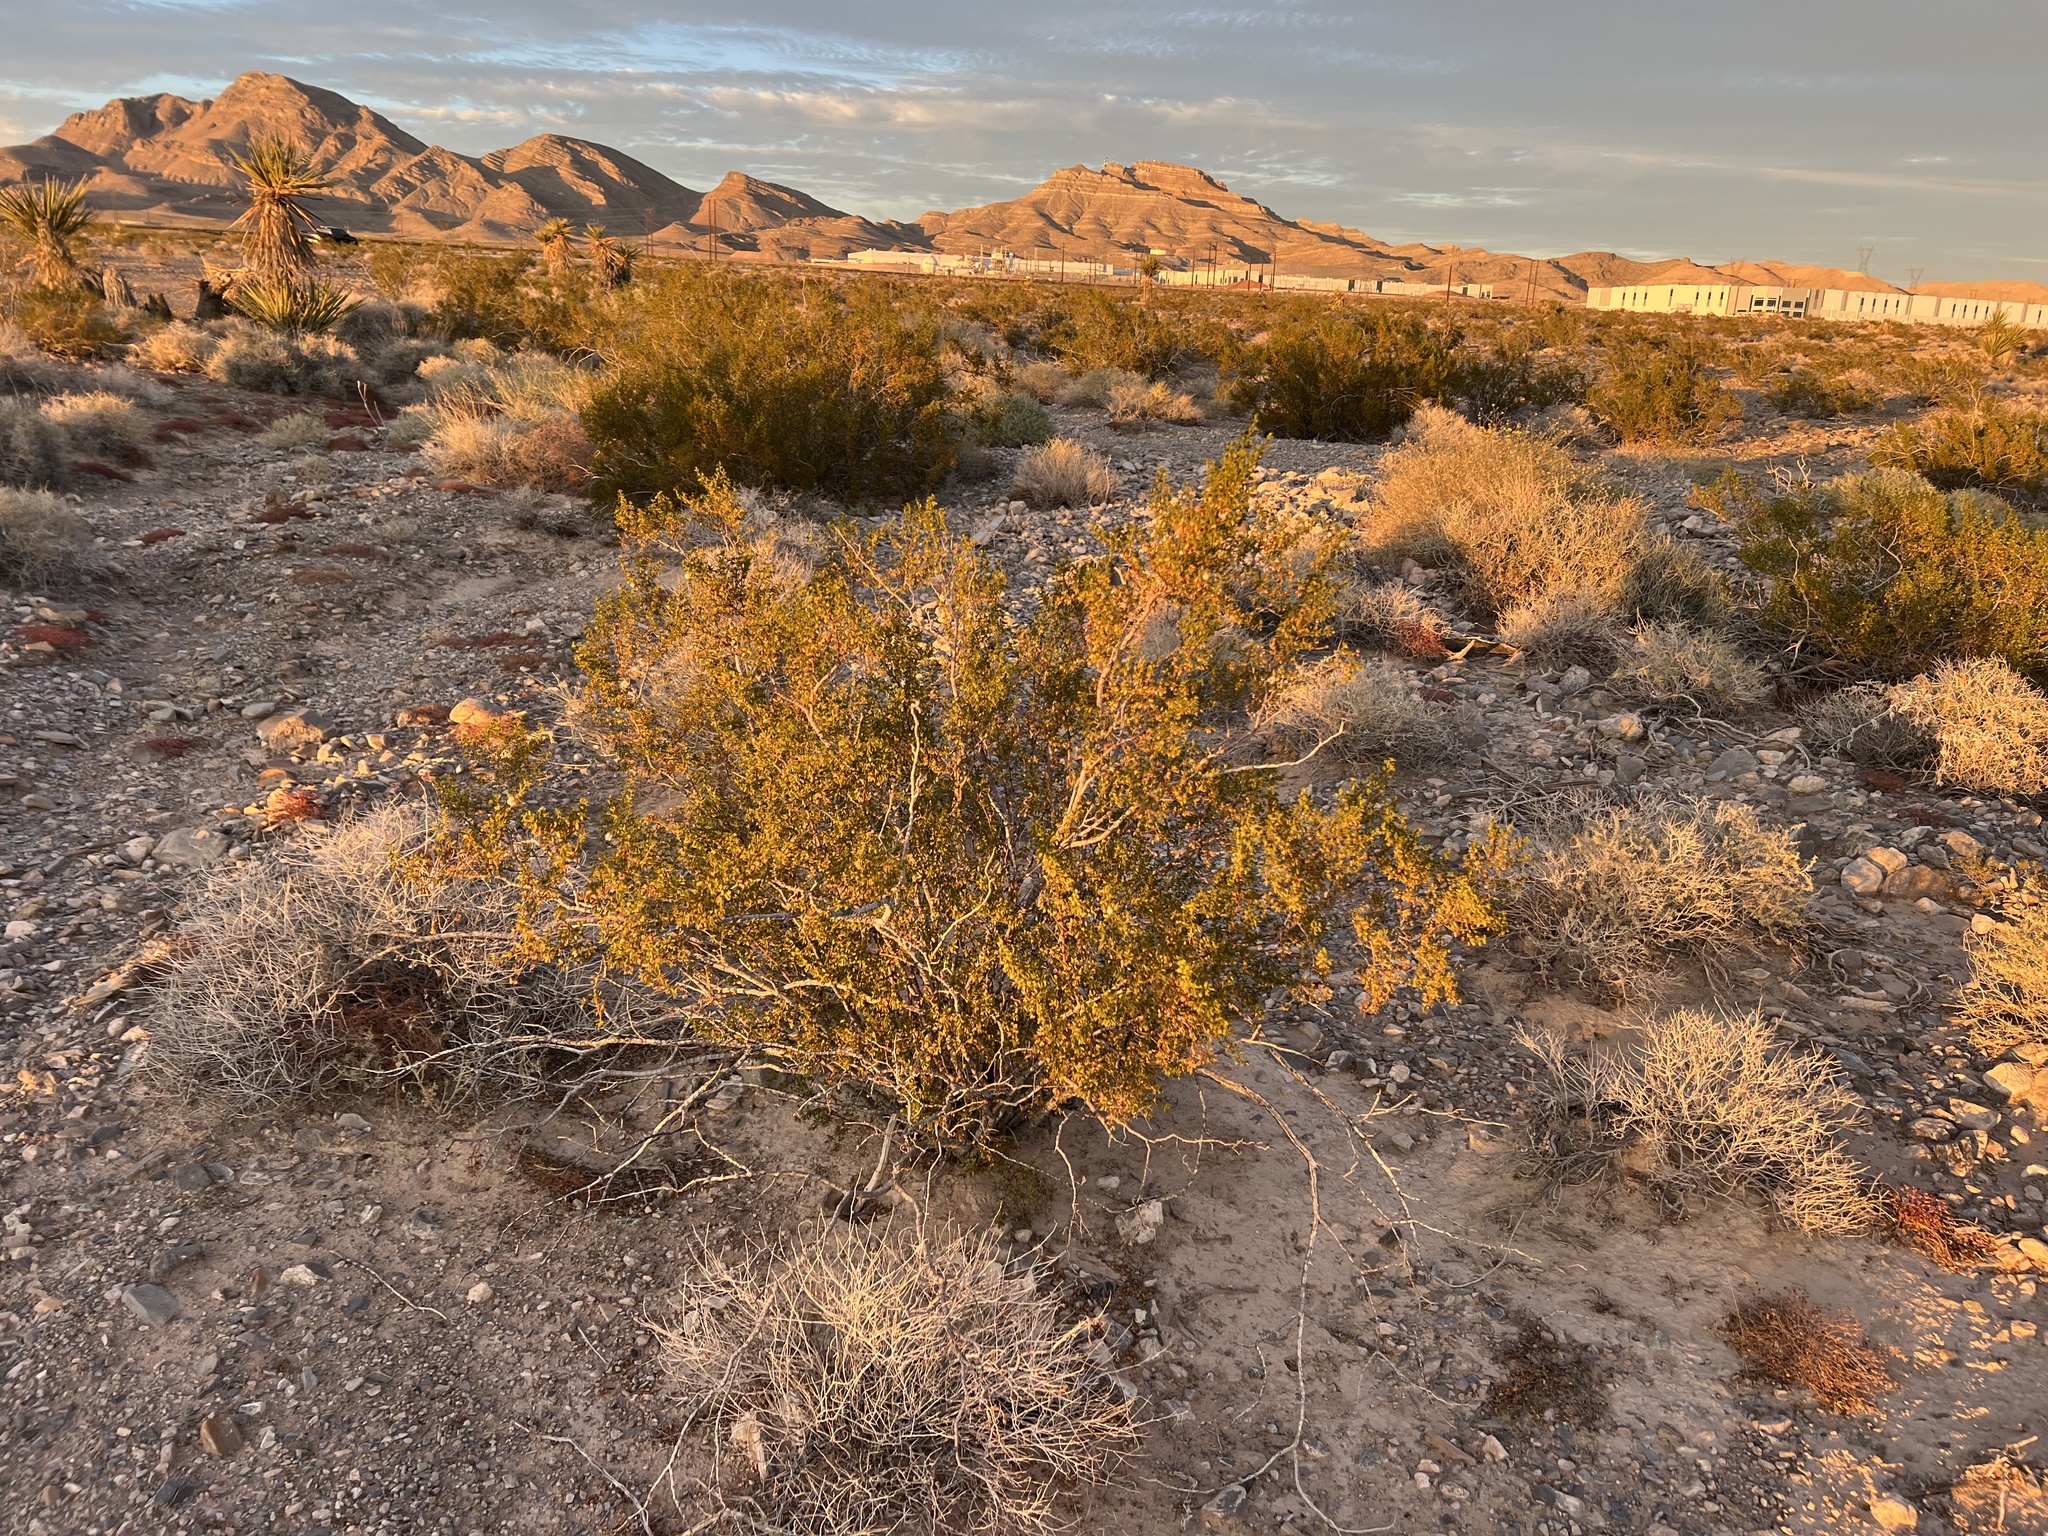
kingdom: Plantae
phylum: Tracheophyta
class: Magnoliopsida
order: Zygophyllales
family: Zygophyllaceae
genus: Larrea
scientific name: Larrea tridentata
